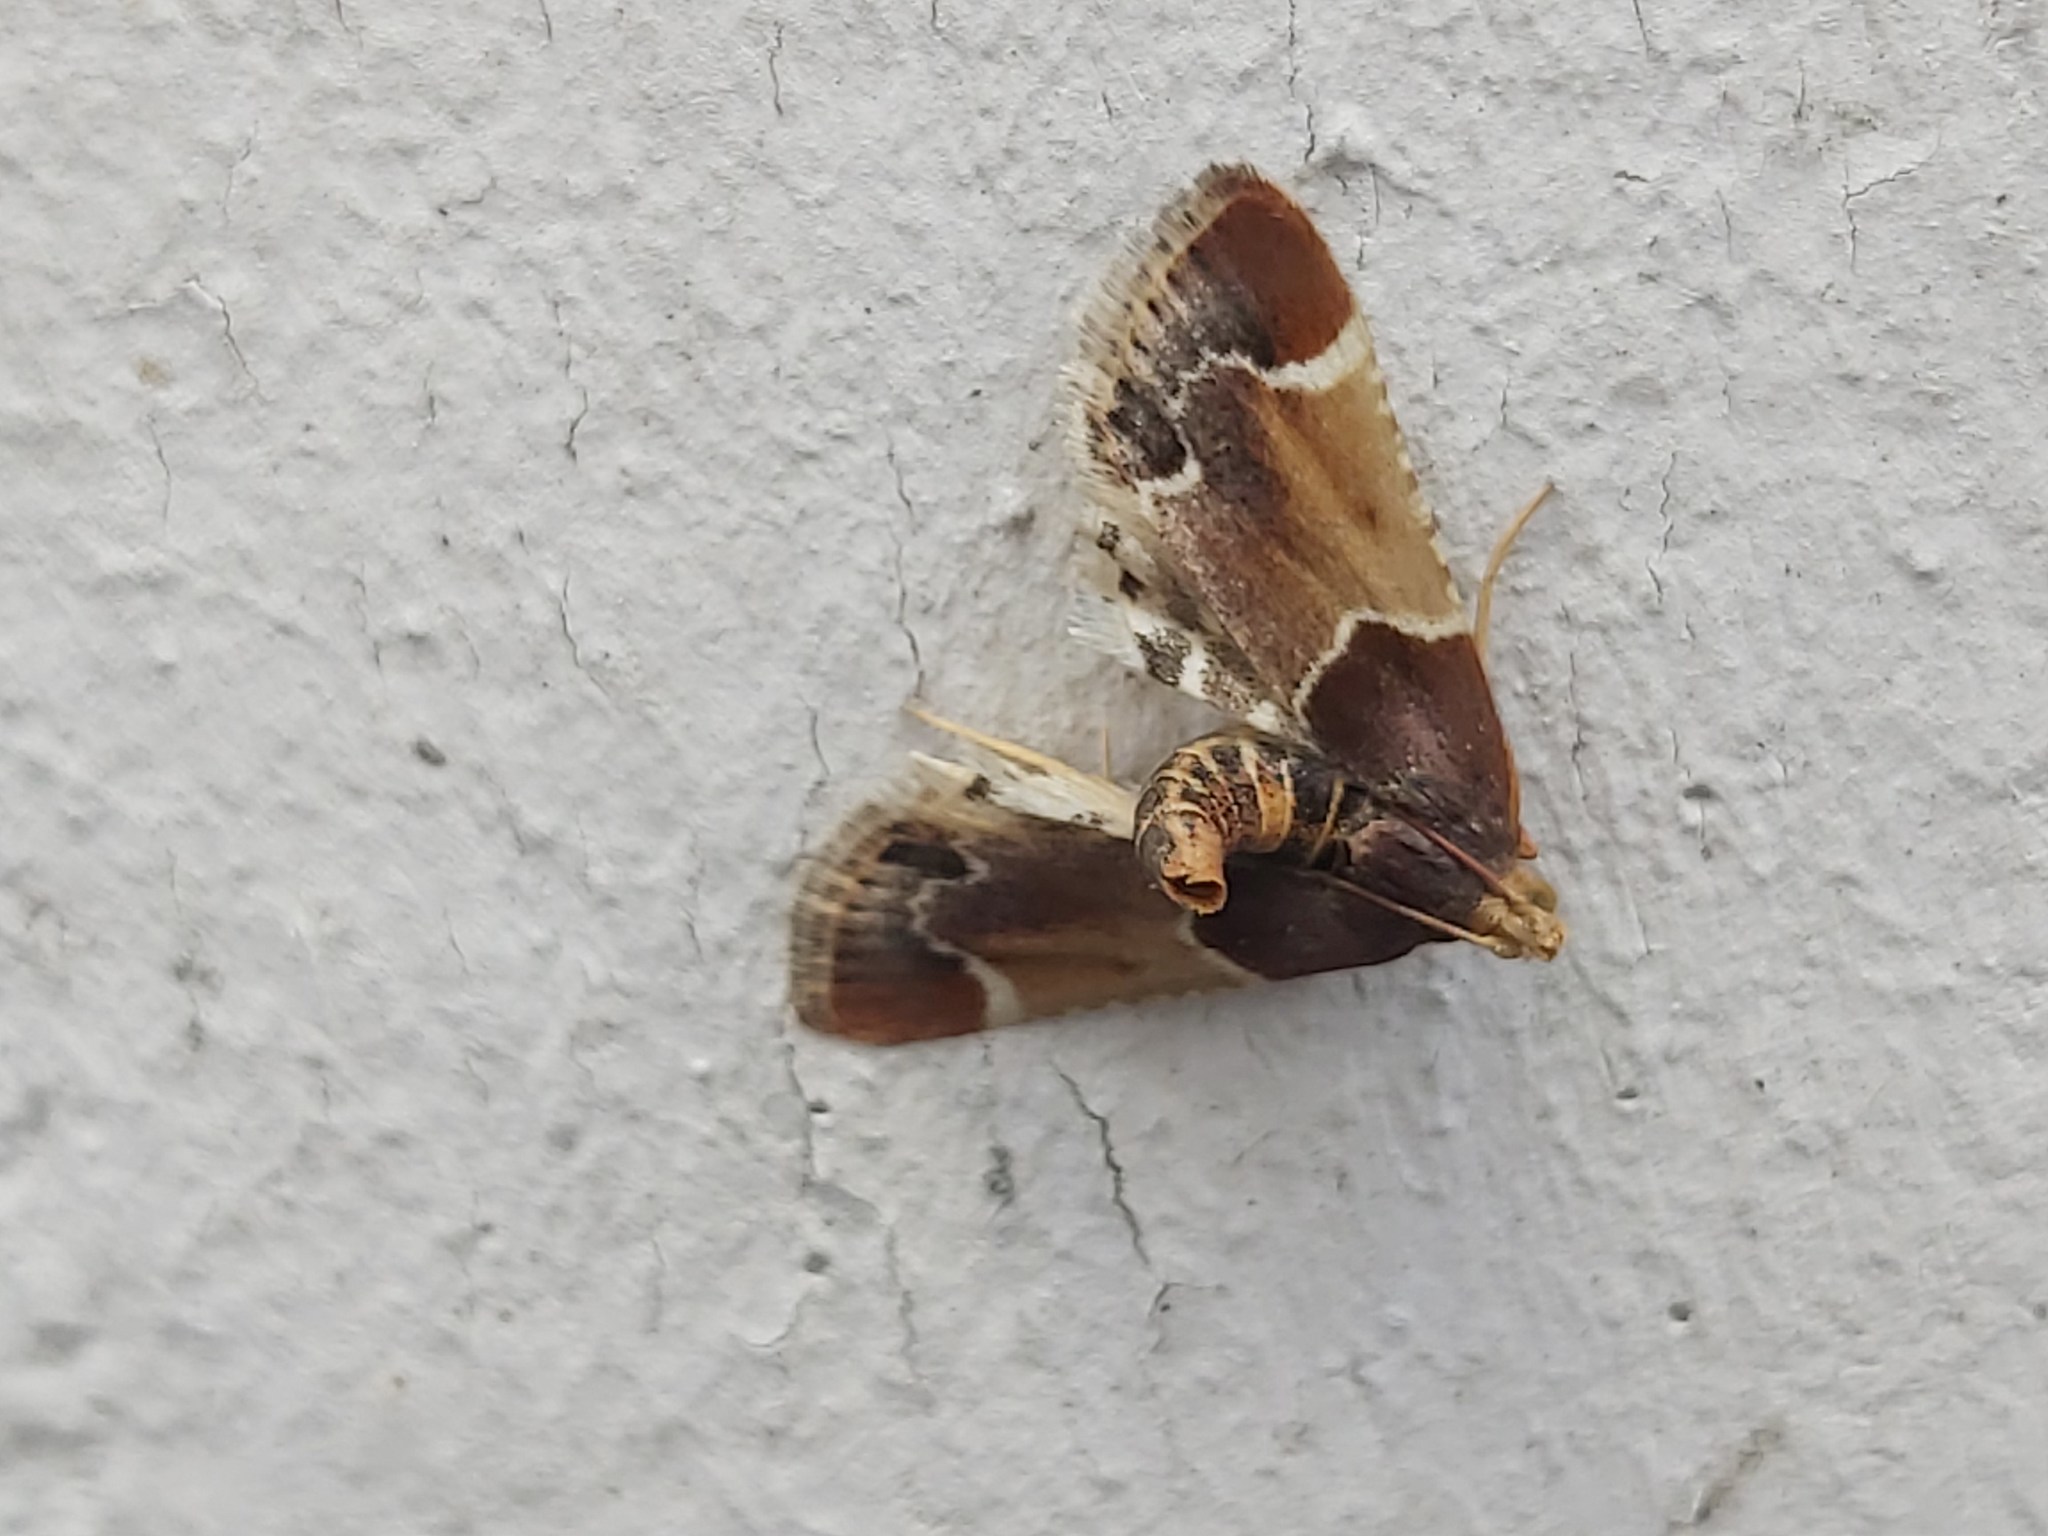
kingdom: Animalia
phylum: Arthropoda
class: Insecta
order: Lepidoptera
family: Pyralidae
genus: Pyralis
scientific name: Pyralis farinalis
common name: Meal moth
